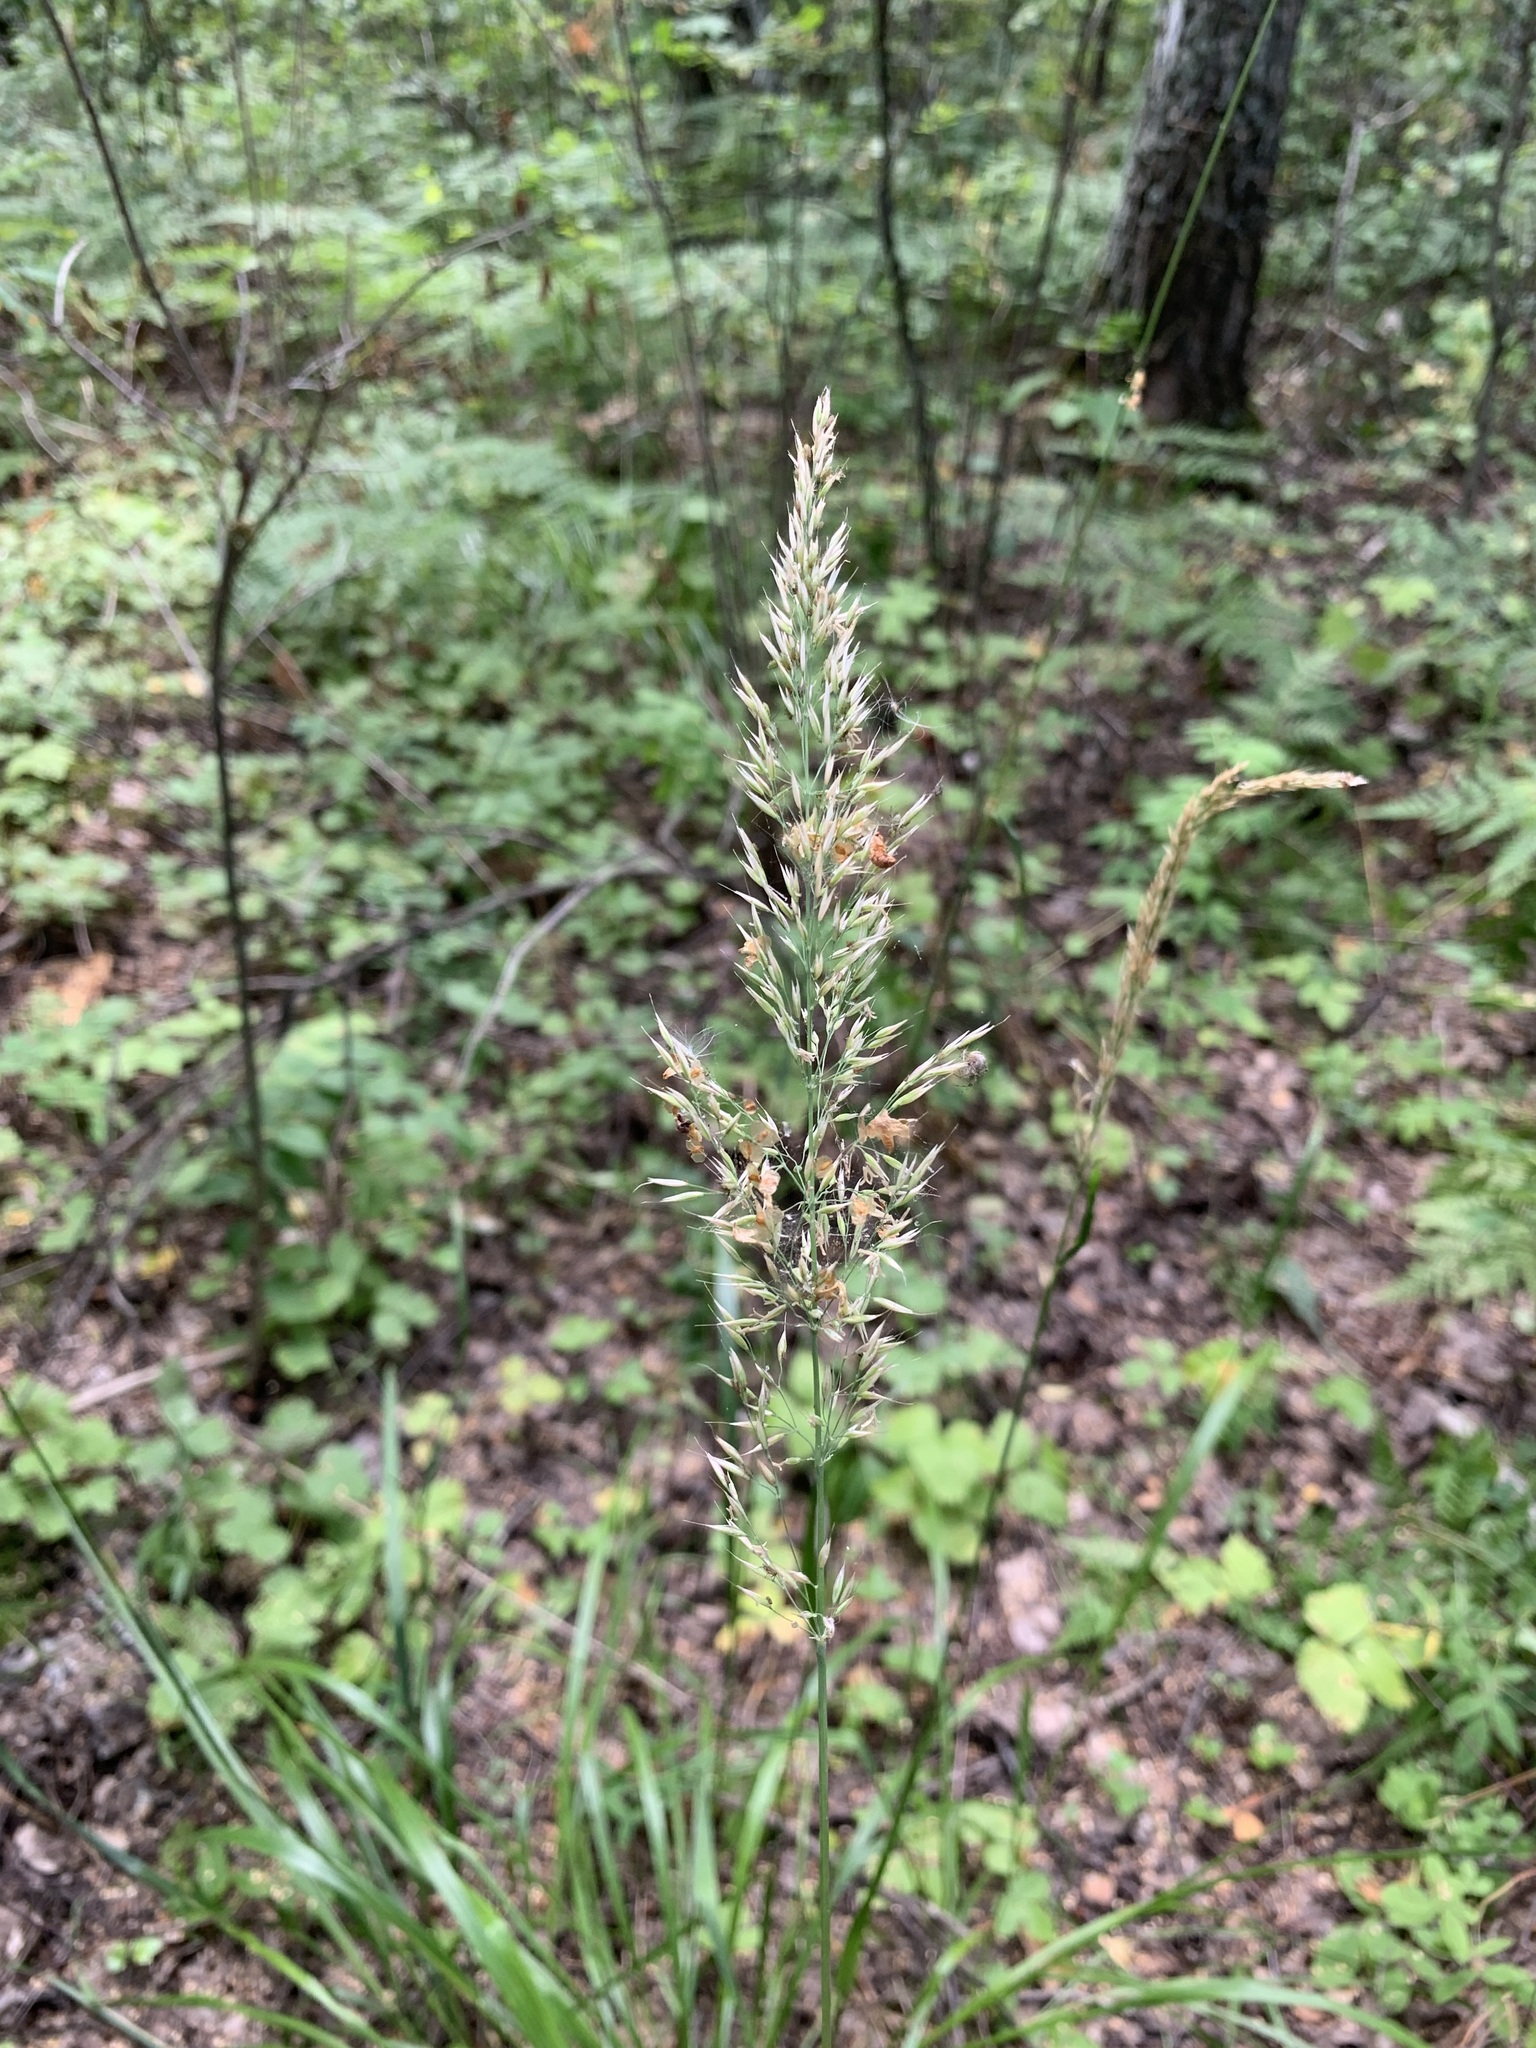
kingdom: Plantae
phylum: Tracheophyta
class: Liliopsida
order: Poales
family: Poaceae
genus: Calamagrostis
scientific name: Calamagrostis arundinacea
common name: Metskastik
